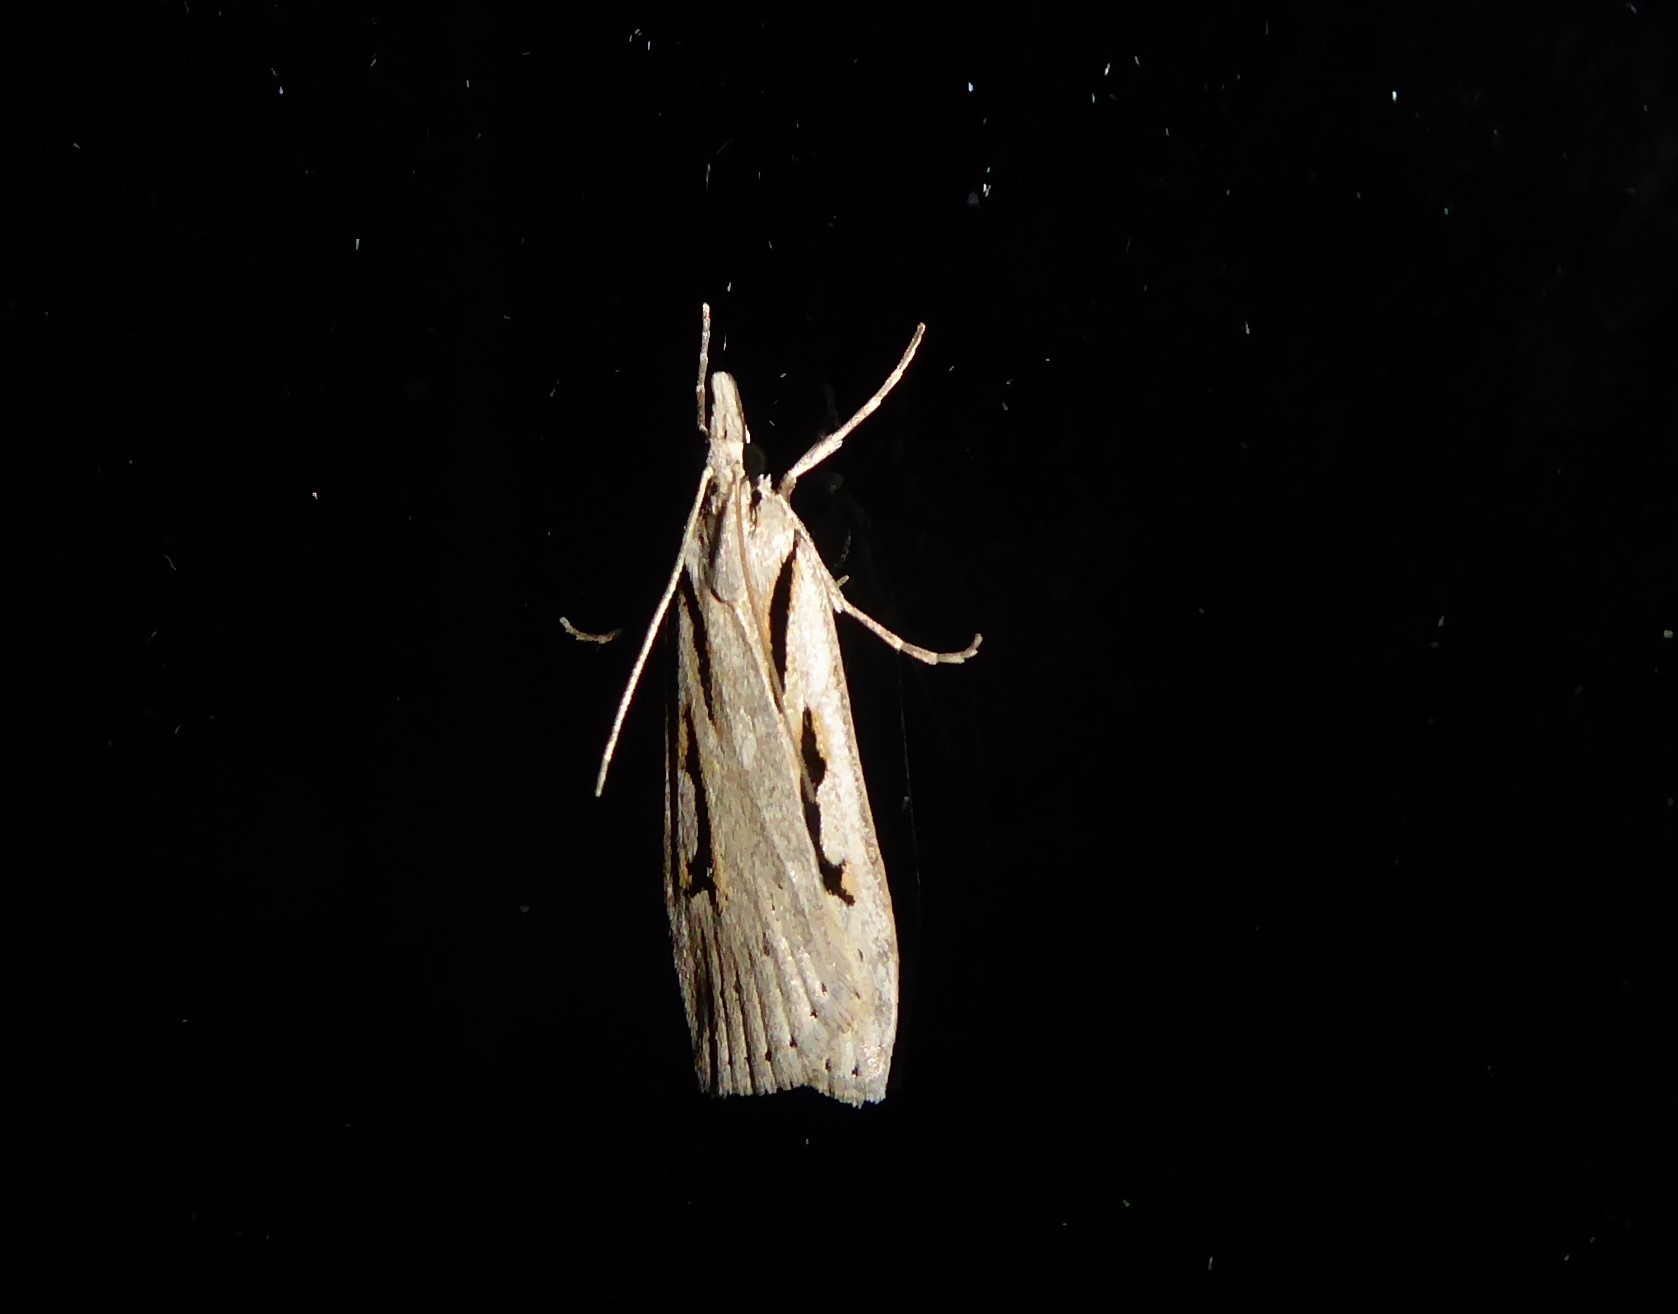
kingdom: Animalia
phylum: Arthropoda
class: Insecta
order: Lepidoptera
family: Crambidae
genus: Scoparia
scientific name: Scoparia rotuellus
